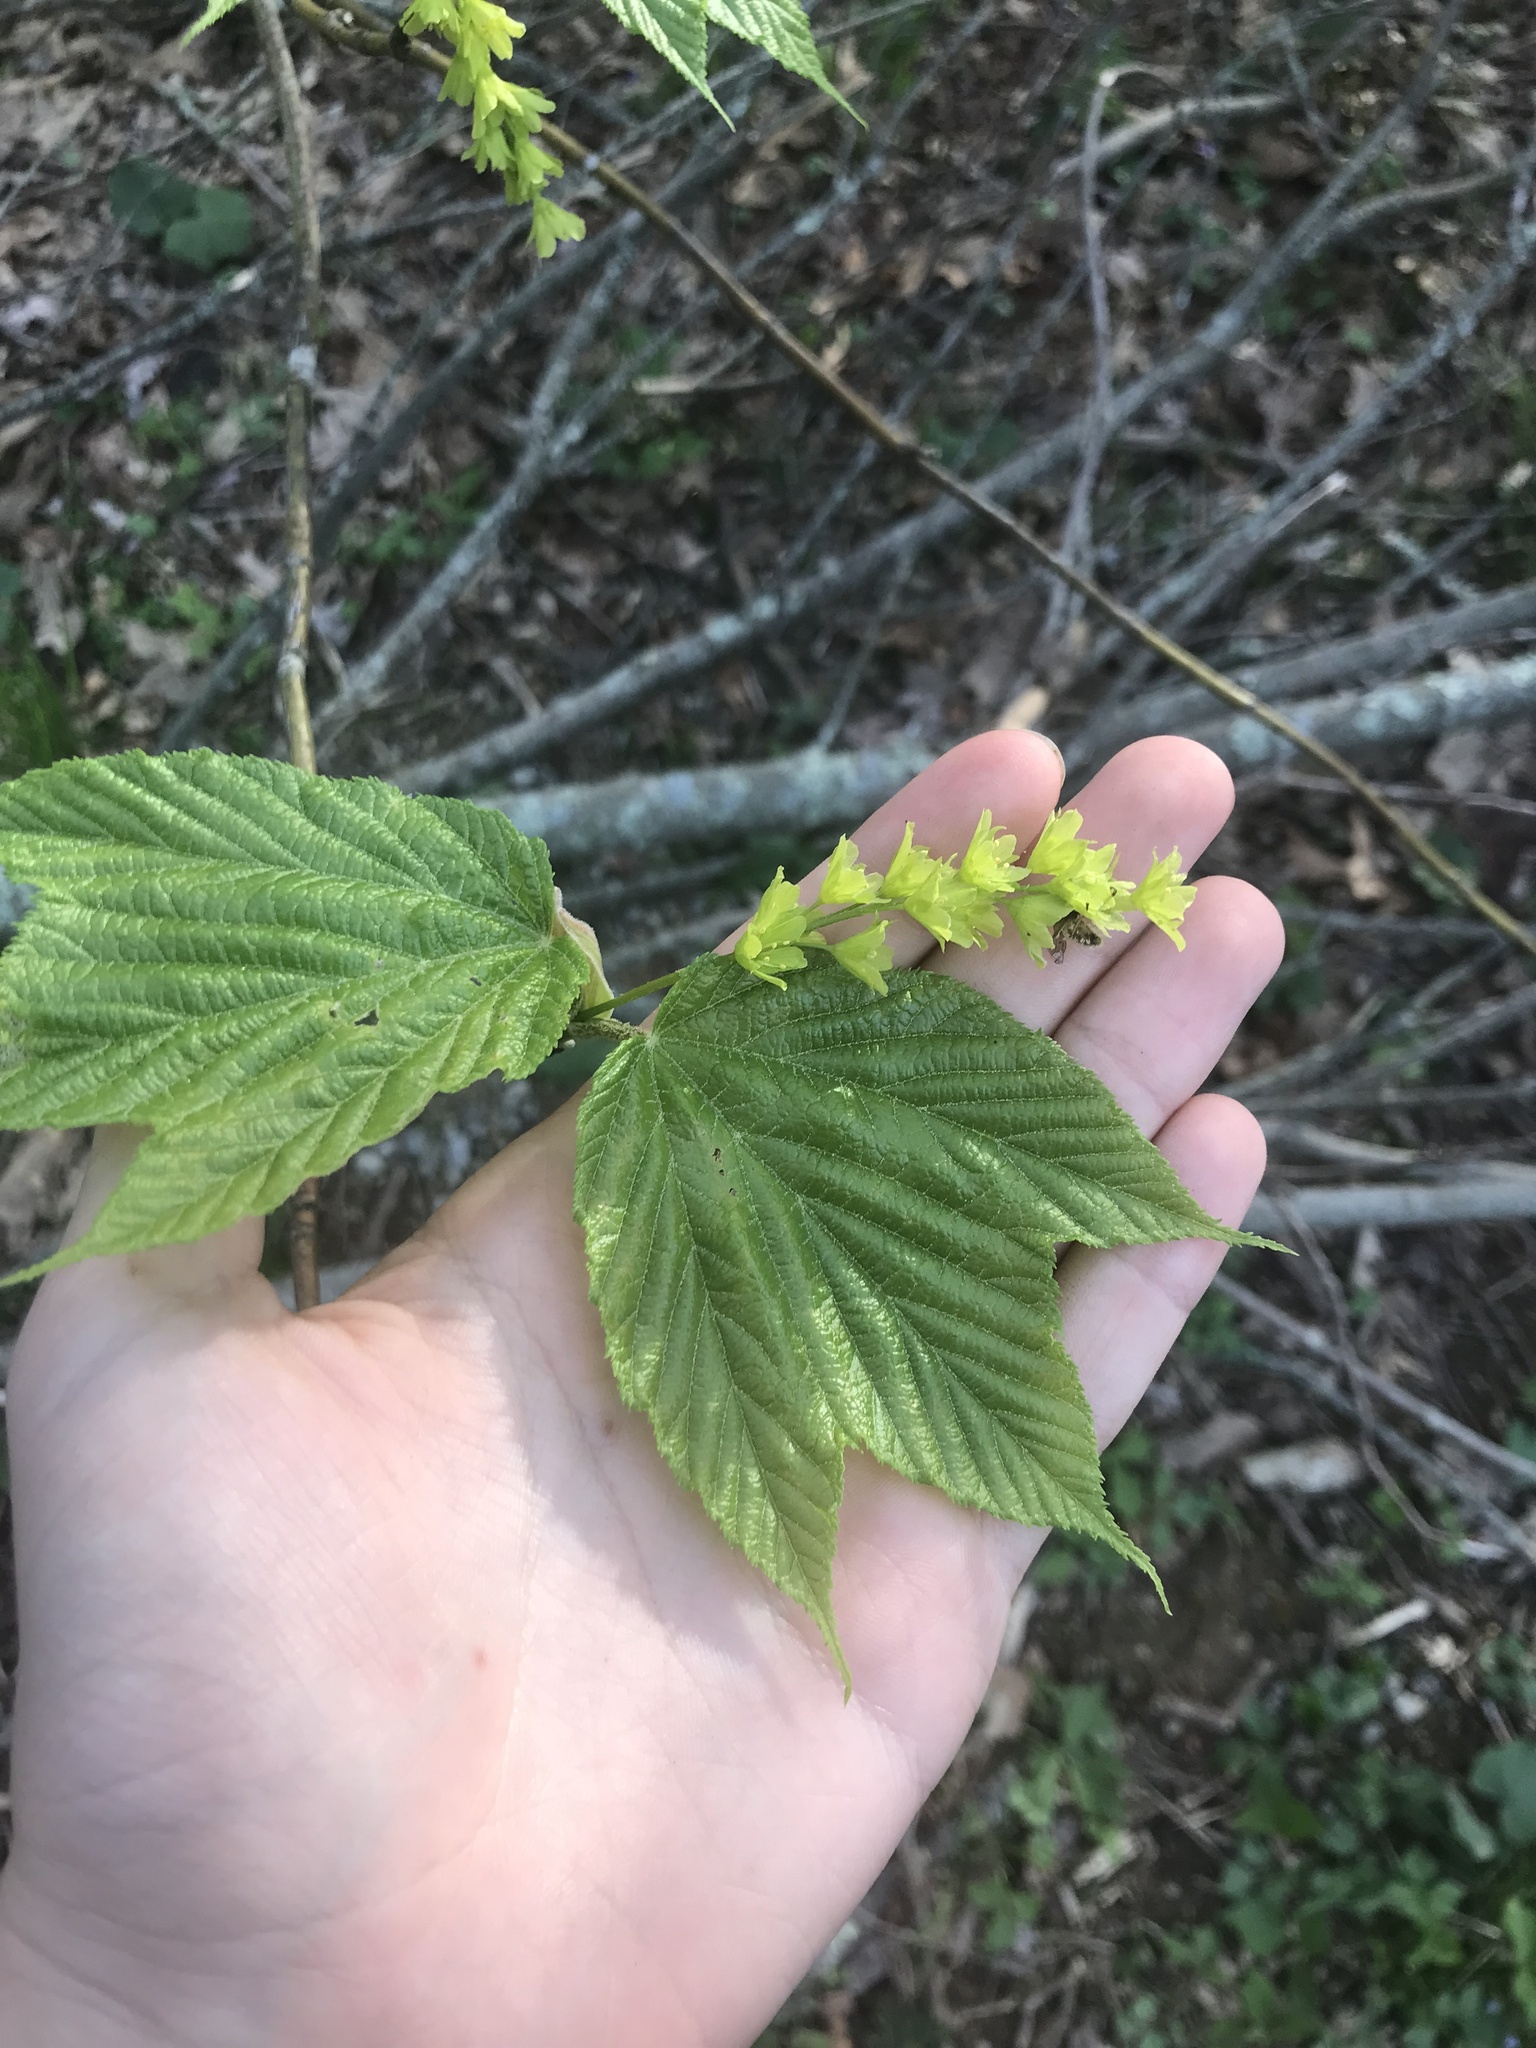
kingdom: Plantae
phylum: Tracheophyta
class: Magnoliopsida
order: Sapindales
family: Sapindaceae
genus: Acer
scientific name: Acer pensylvanicum
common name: Moosewood
